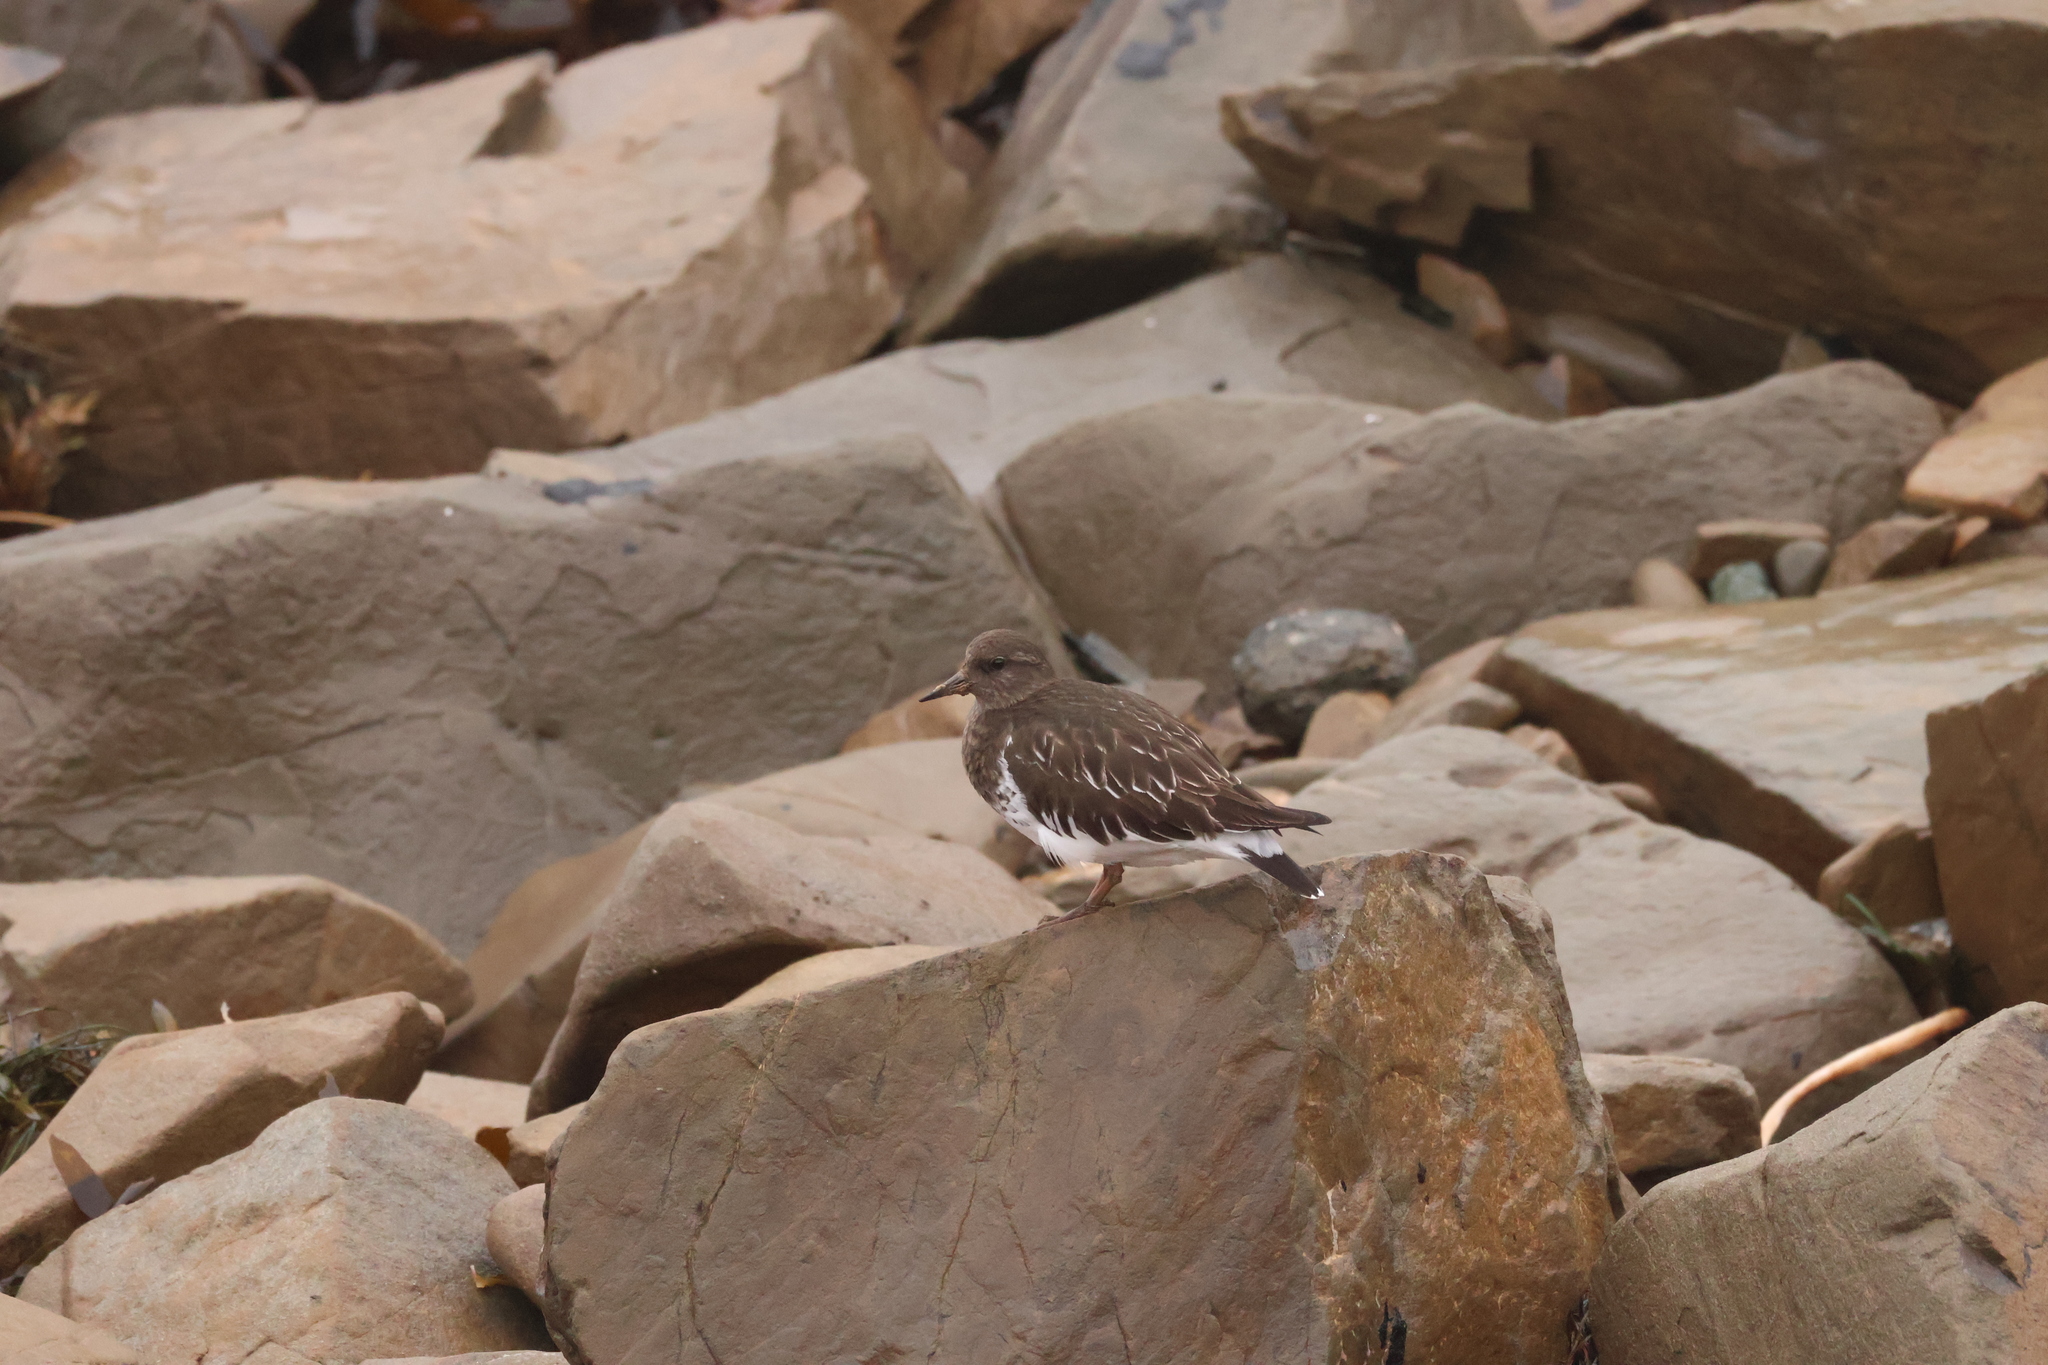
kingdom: Animalia
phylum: Chordata
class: Aves
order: Charadriiformes
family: Scolopacidae
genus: Arenaria
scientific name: Arenaria melanocephala
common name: Black turnstone
